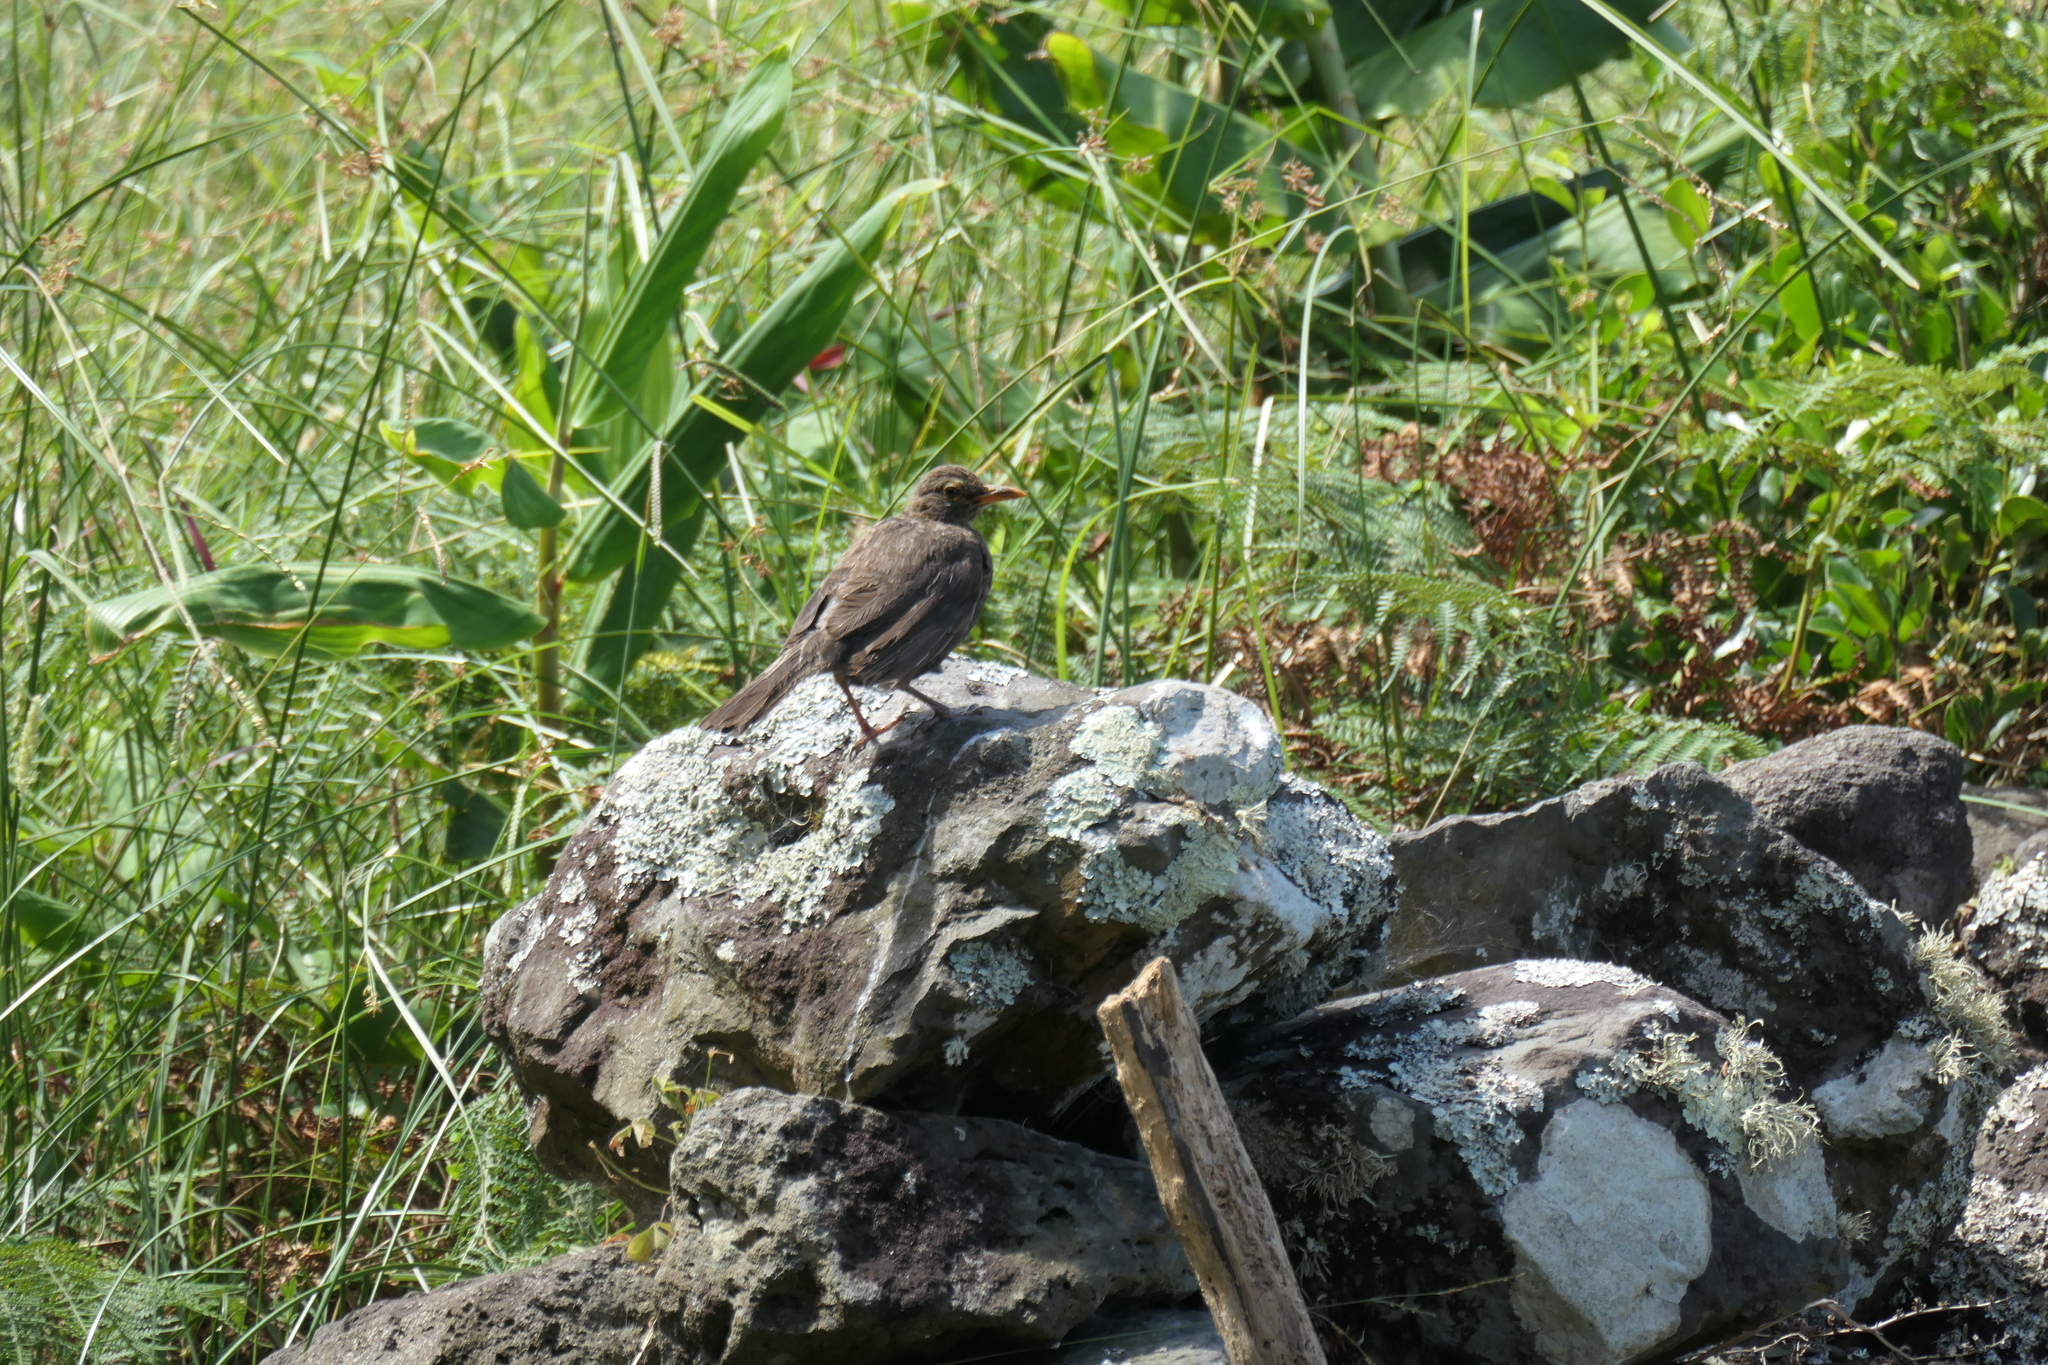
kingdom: Animalia
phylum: Chordata
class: Aves
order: Passeriformes
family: Turdidae
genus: Turdus
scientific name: Turdus merula
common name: Common blackbird
